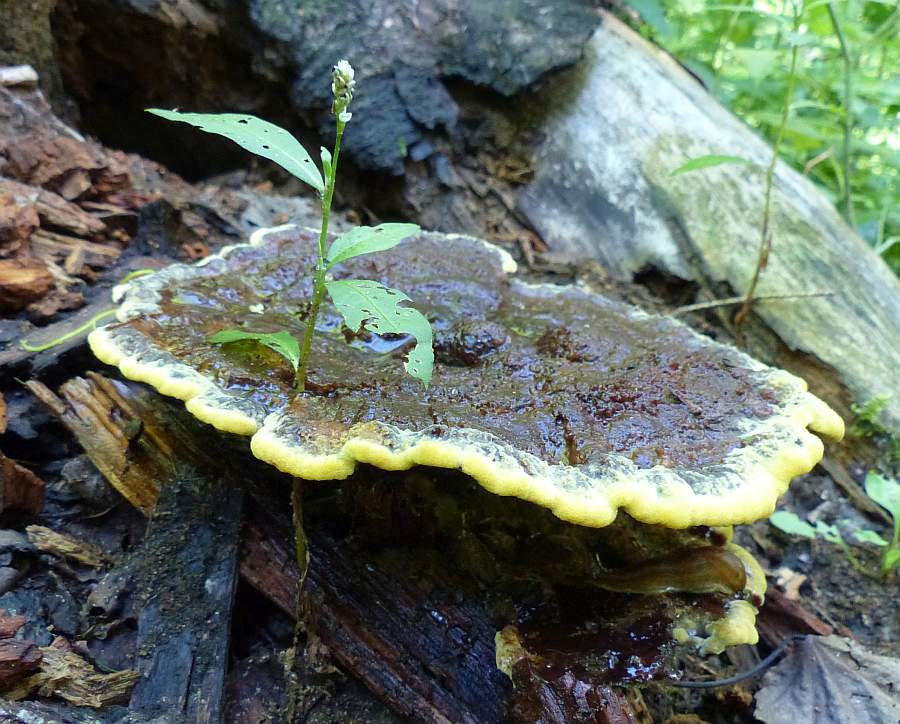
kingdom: Fungi
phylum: Basidiomycota
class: Agaricomycetes
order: Polyporales
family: Laetiporaceae
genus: Phaeolus
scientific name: Phaeolus schweinitzii
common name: Dyer's mazegill
